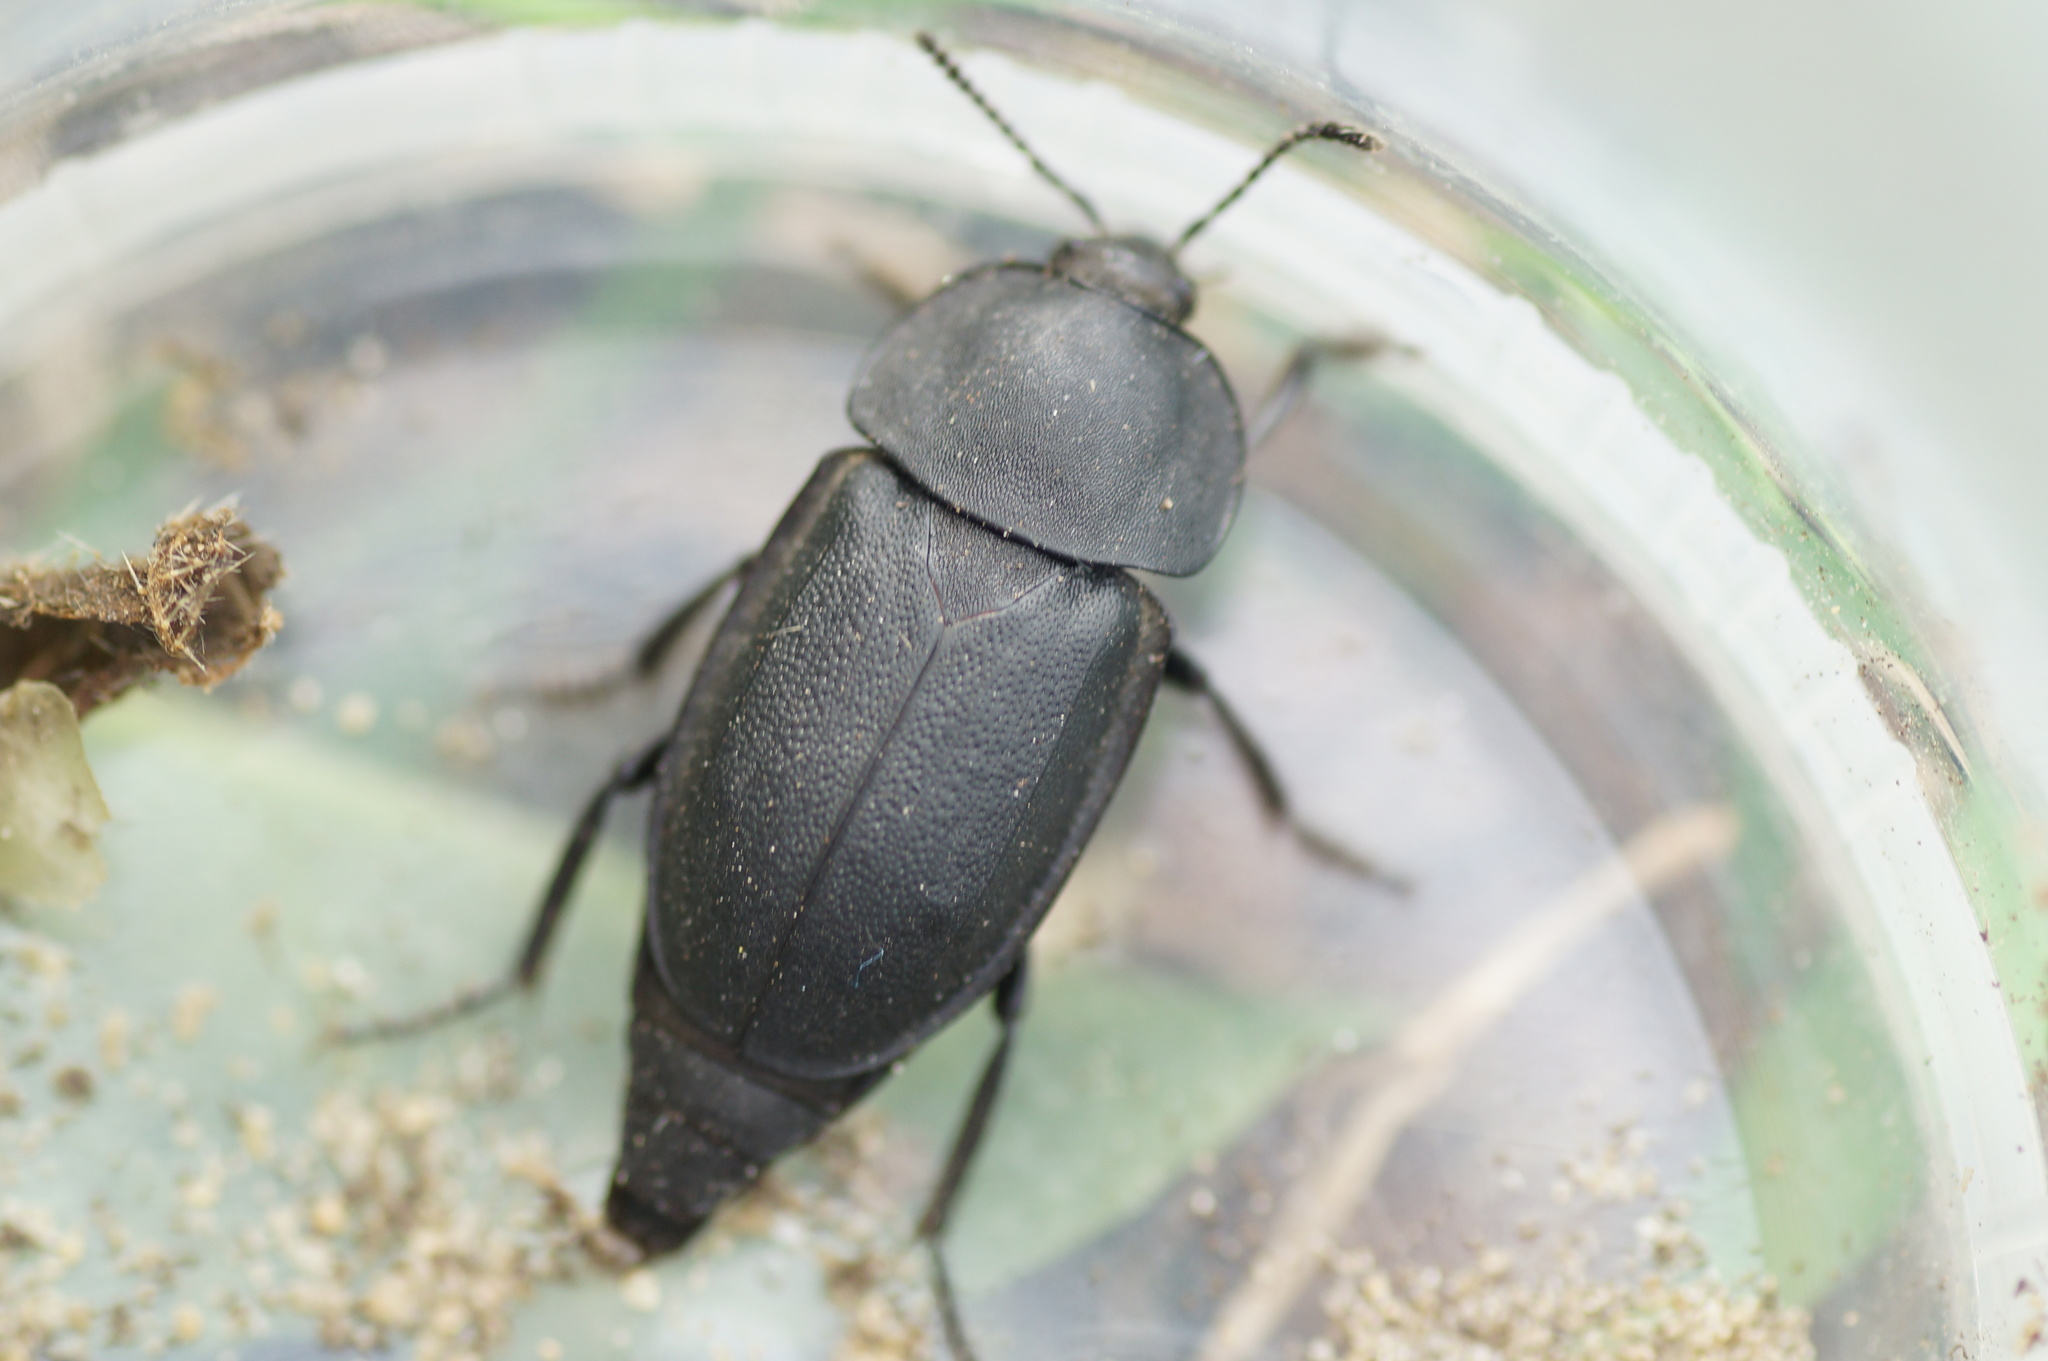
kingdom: Animalia
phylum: Arthropoda
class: Insecta
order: Coleoptera
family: Staphylinidae
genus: Silpha
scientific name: Silpha obscura
